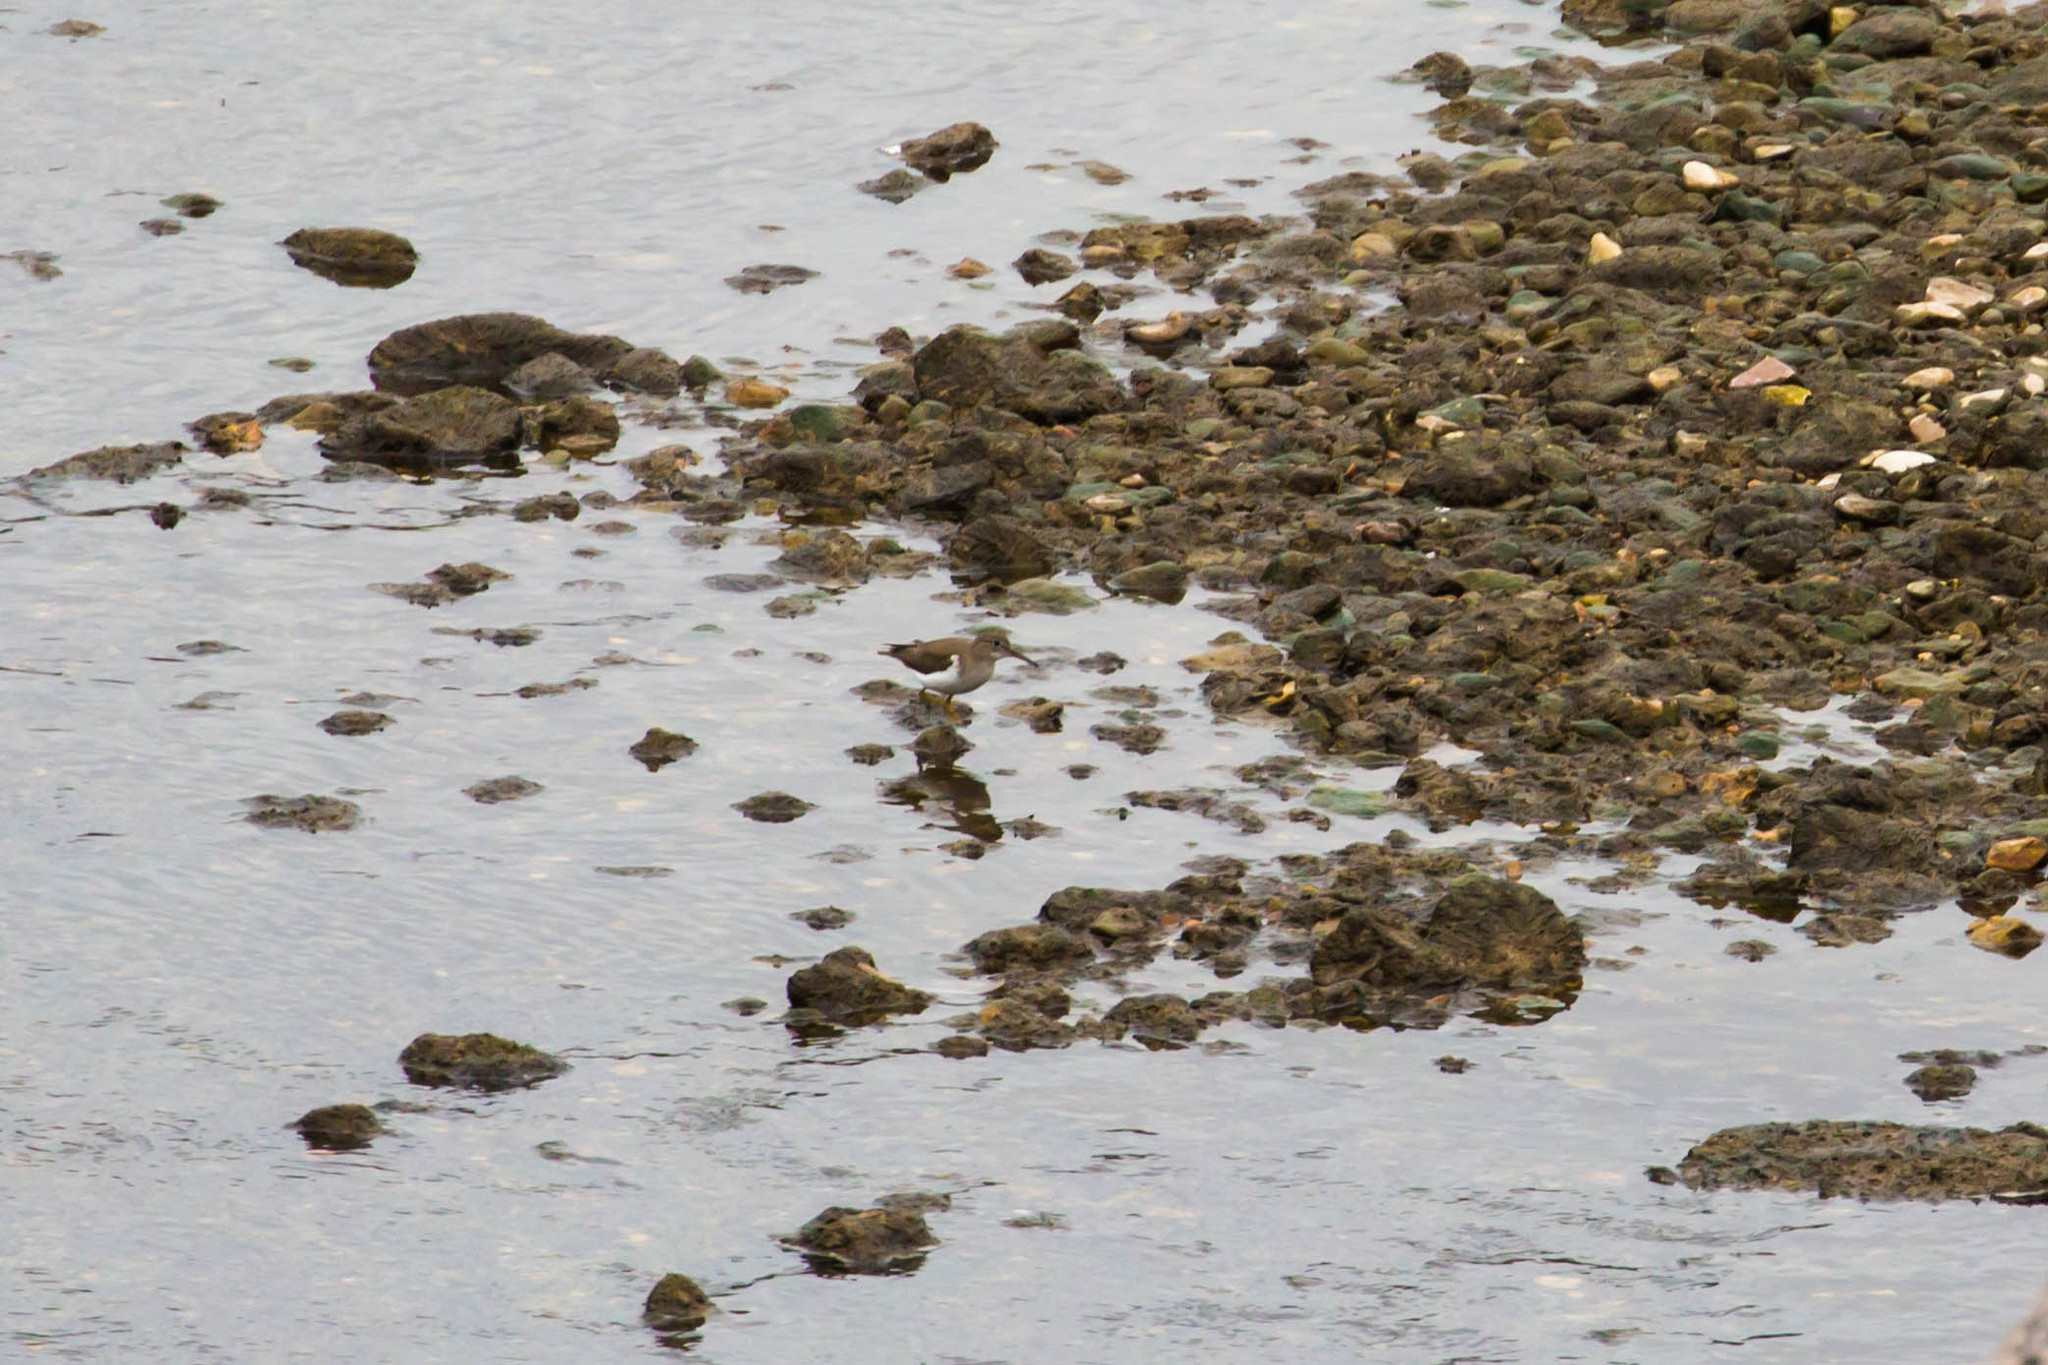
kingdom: Animalia
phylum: Chordata
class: Aves
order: Charadriiformes
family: Scolopacidae
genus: Actitis
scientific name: Actitis macularius
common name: Spotted sandpiper
